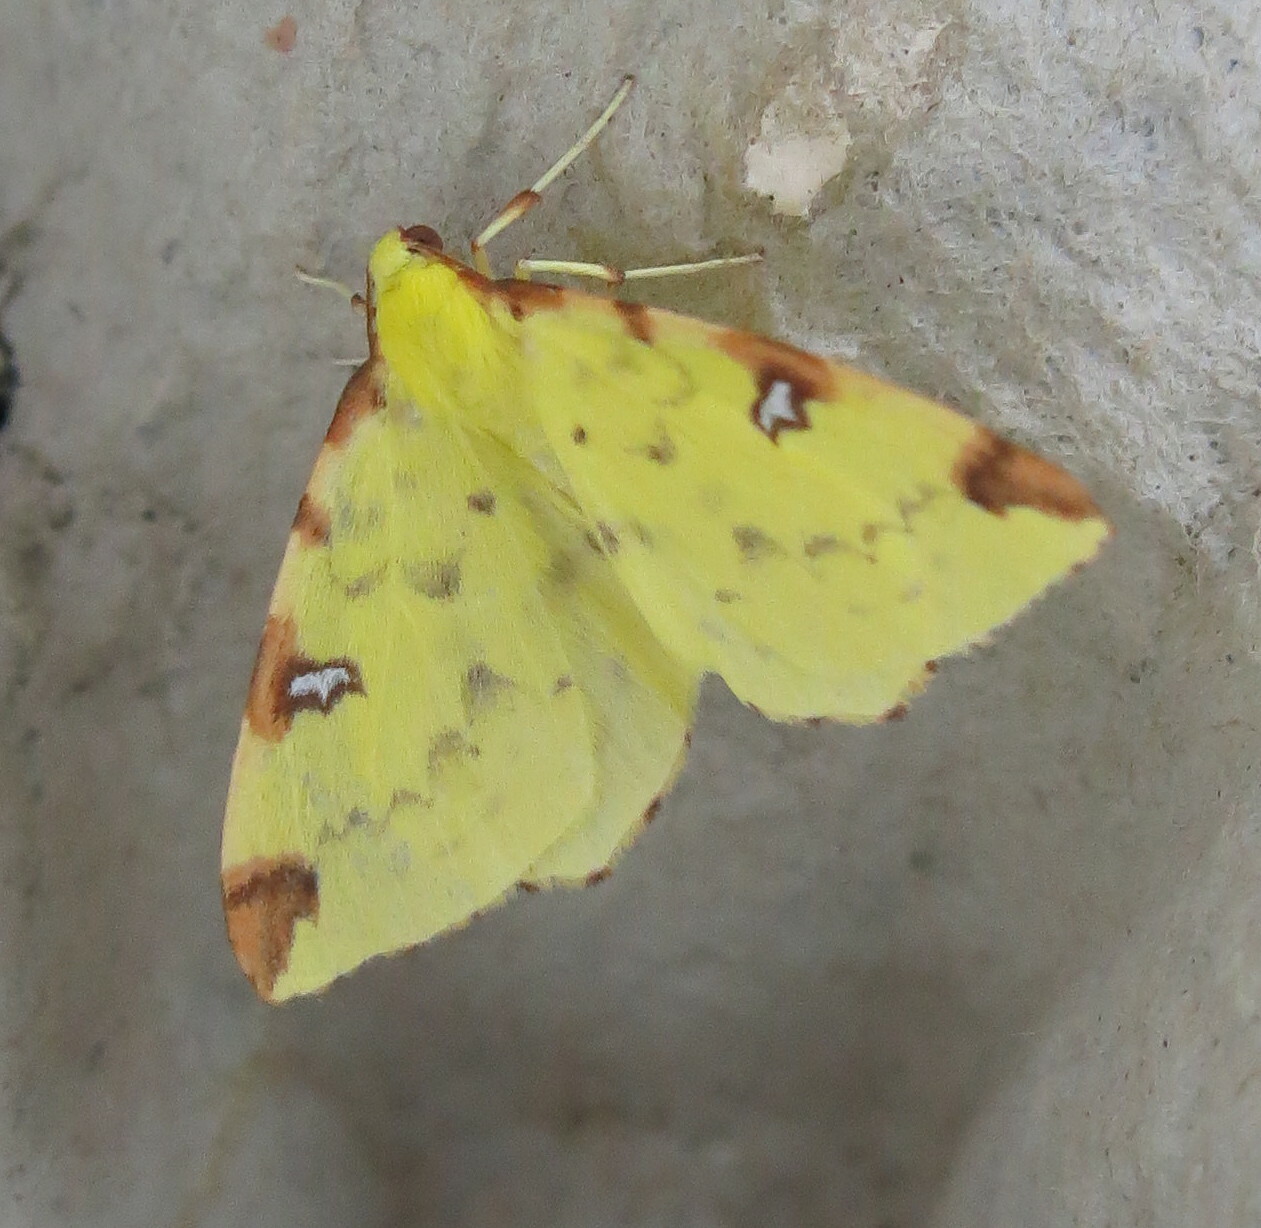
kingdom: Animalia
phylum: Arthropoda
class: Insecta
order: Lepidoptera
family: Geometridae
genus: Opisthograptis
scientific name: Opisthograptis luteolata
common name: Brimstone moth
